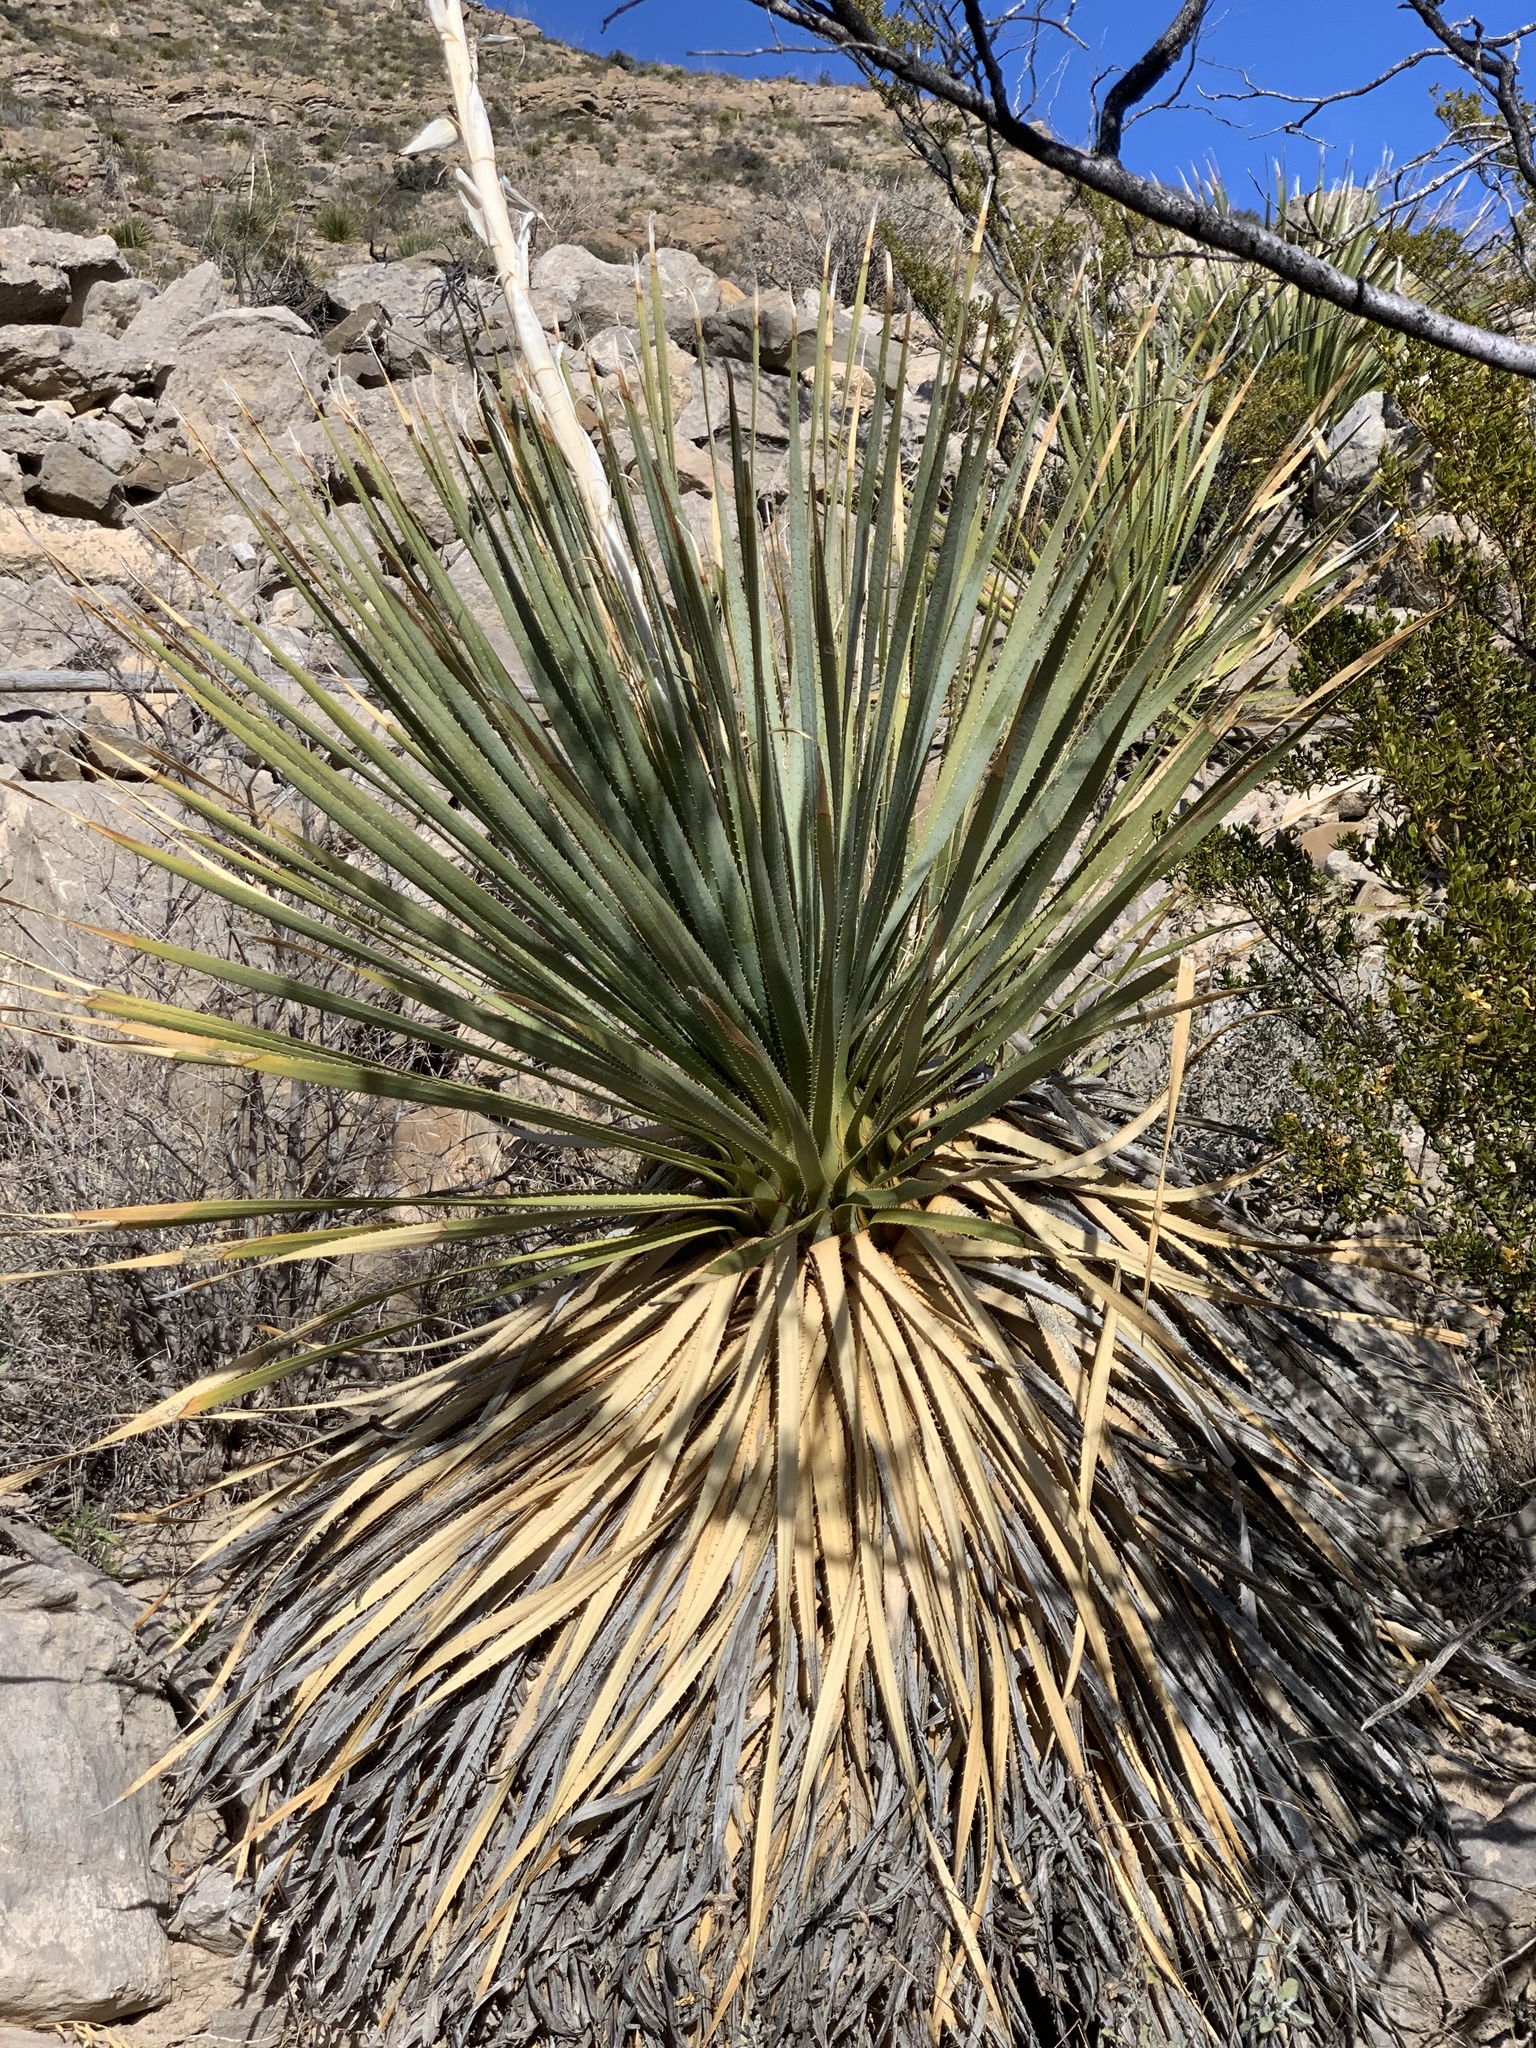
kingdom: Plantae
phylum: Tracheophyta
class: Liliopsida
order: Asparagales
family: Asparagaceae
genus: Dasylirion
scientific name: Dasylirion wheeleri
